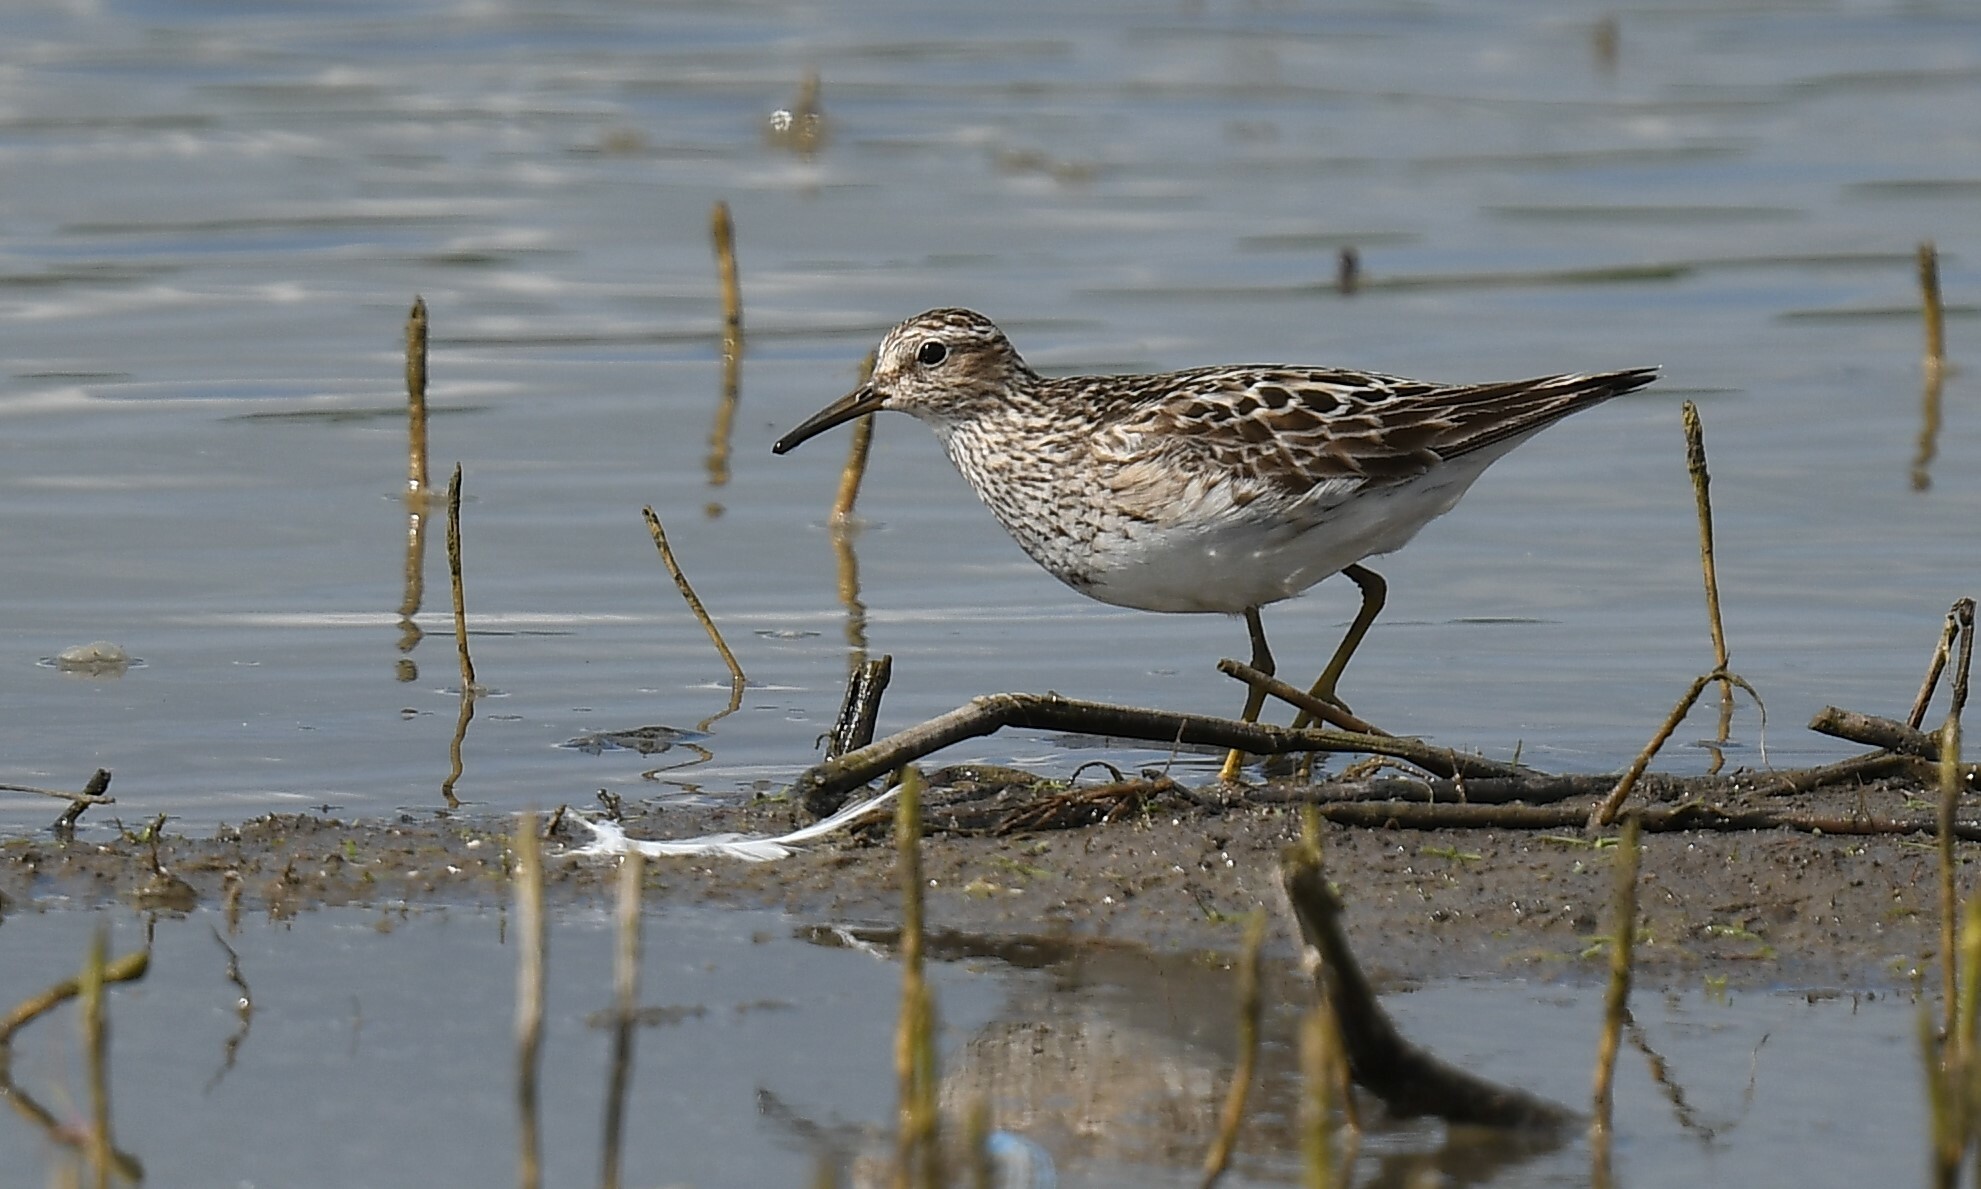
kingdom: Animalia
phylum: Chordata
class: Aves
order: Charadriiformes
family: Scolopacidae
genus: Calidris
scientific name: Calidris melanotos
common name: Pectoral sandpiper
